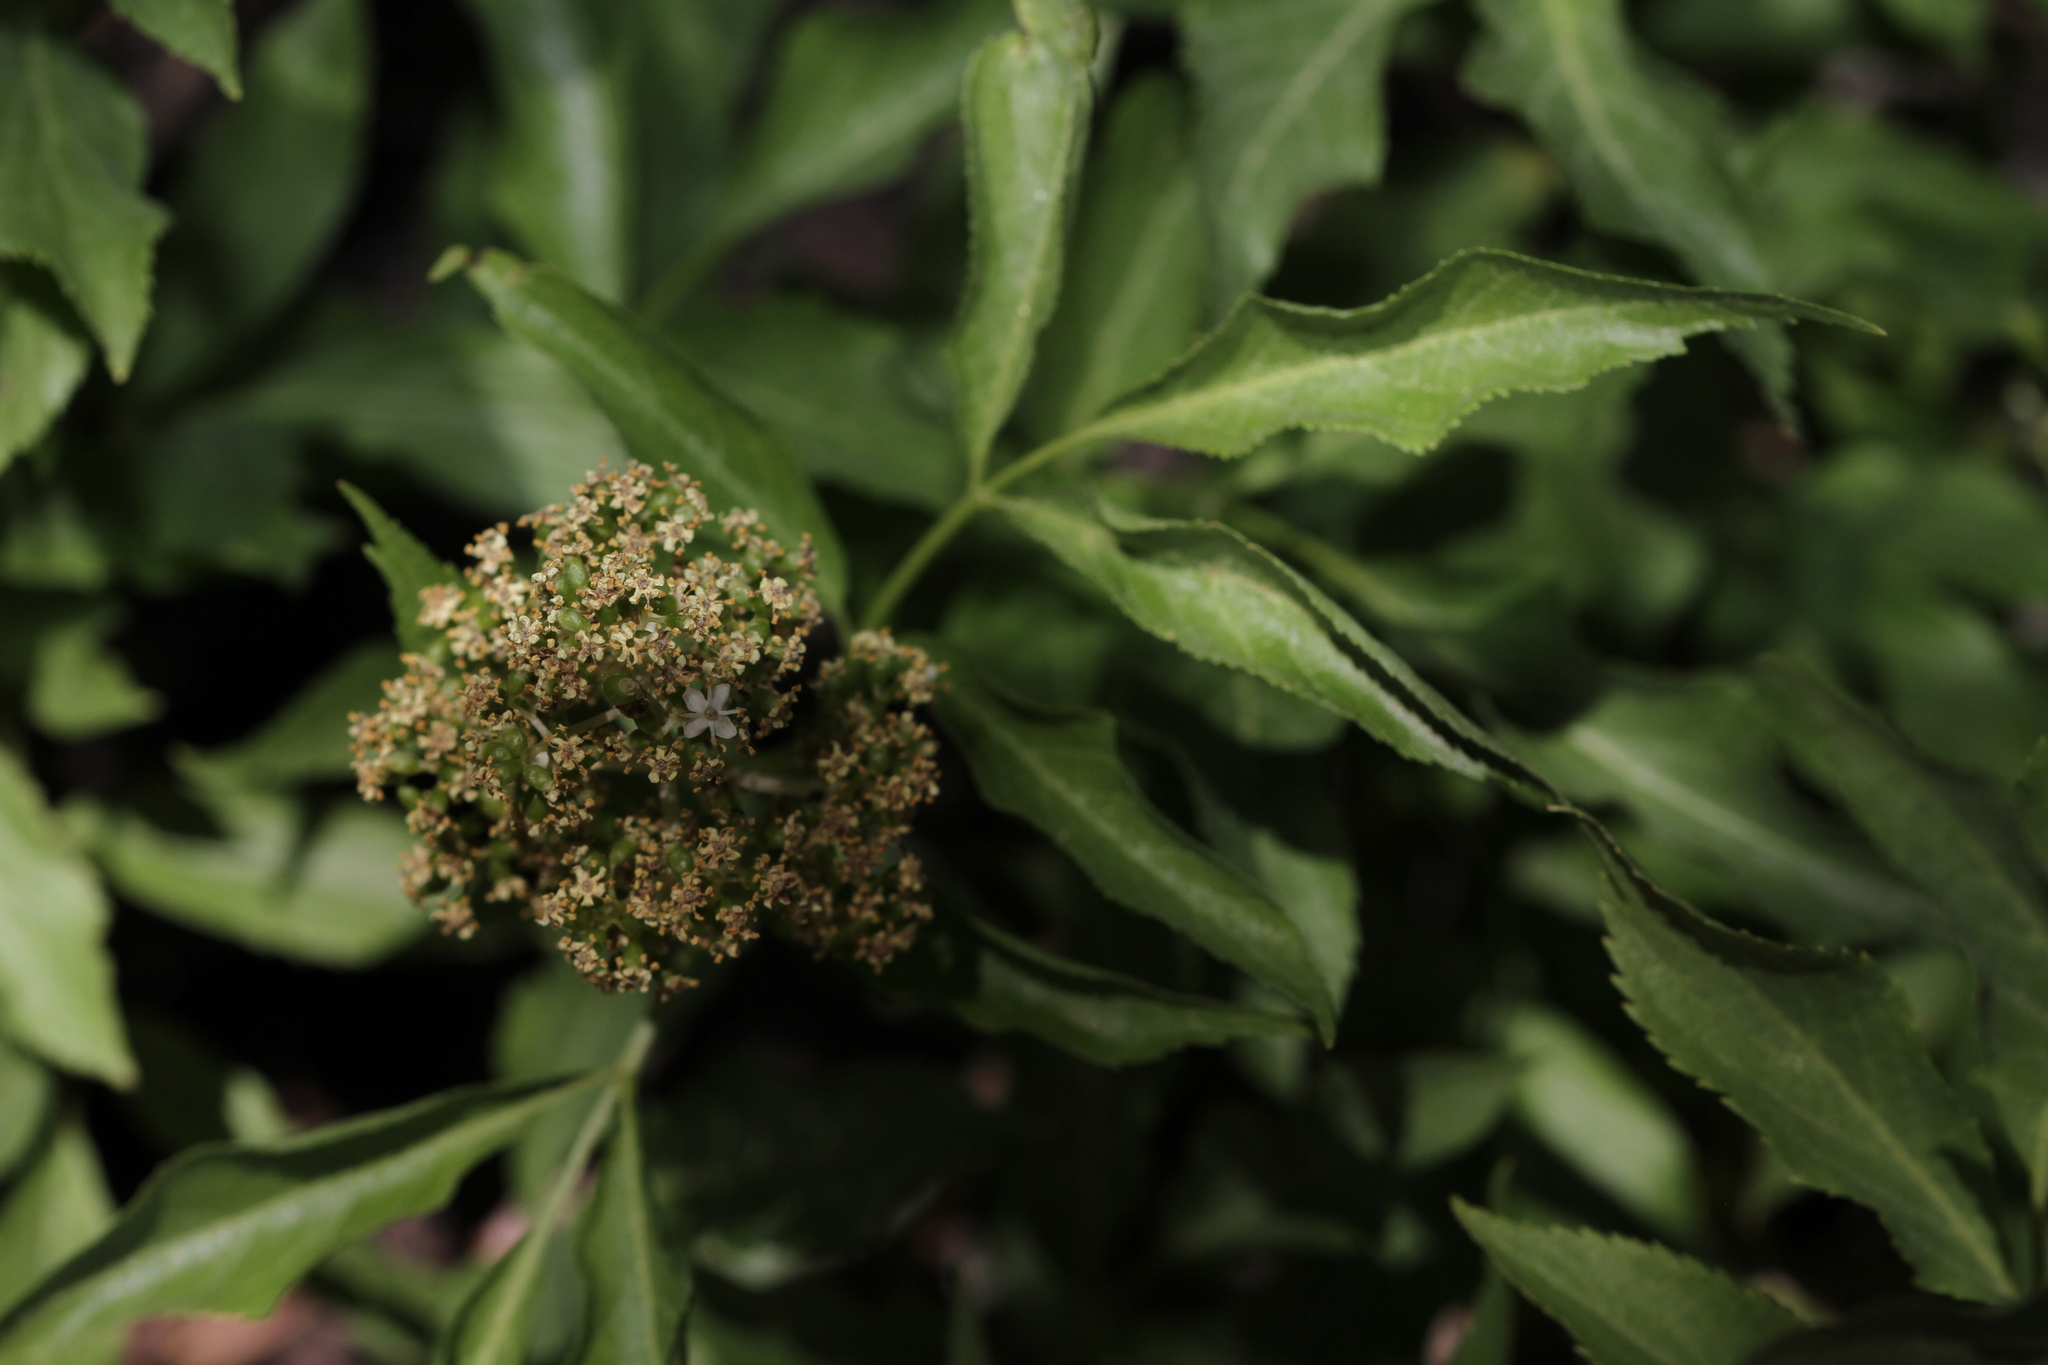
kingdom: Plantae
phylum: Tracheophyta
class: Magnoliopsida
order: Dipsacales
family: Viburnaceae
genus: Sambucus
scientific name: Sambucus cerulea
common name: Blue elder
